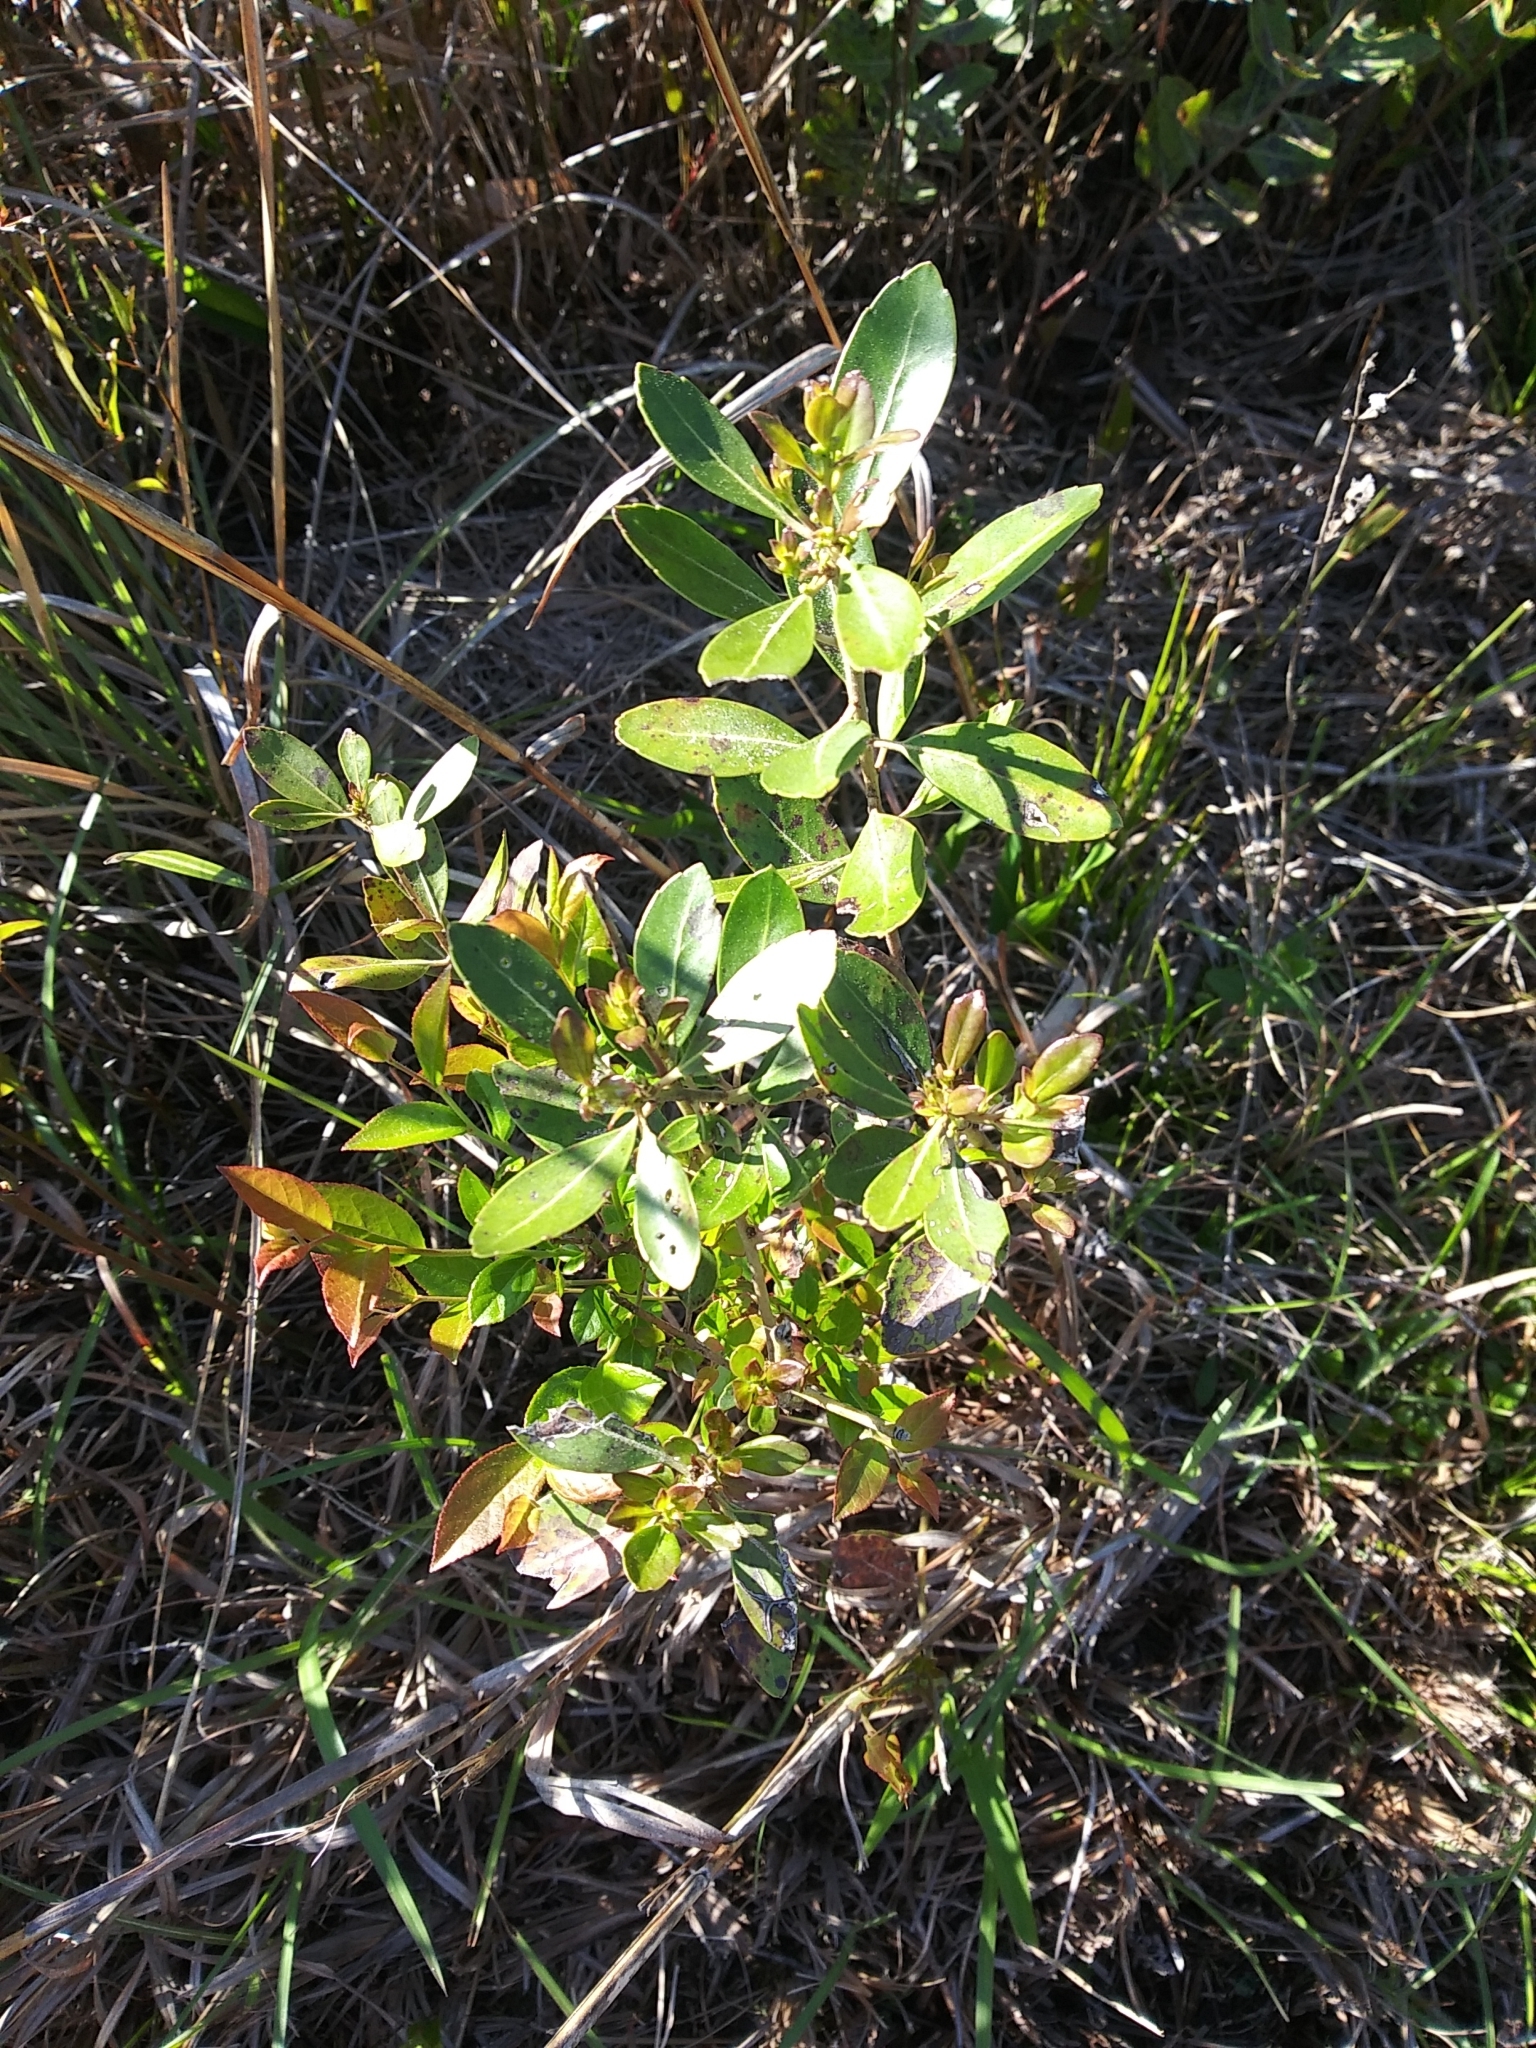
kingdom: Plantae
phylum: Tracheophyta
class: Magnoliopsida
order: Aquifoliales
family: Aquifoliaceae
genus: Ilex
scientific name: Ilex glabra
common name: Bitter gallberry
